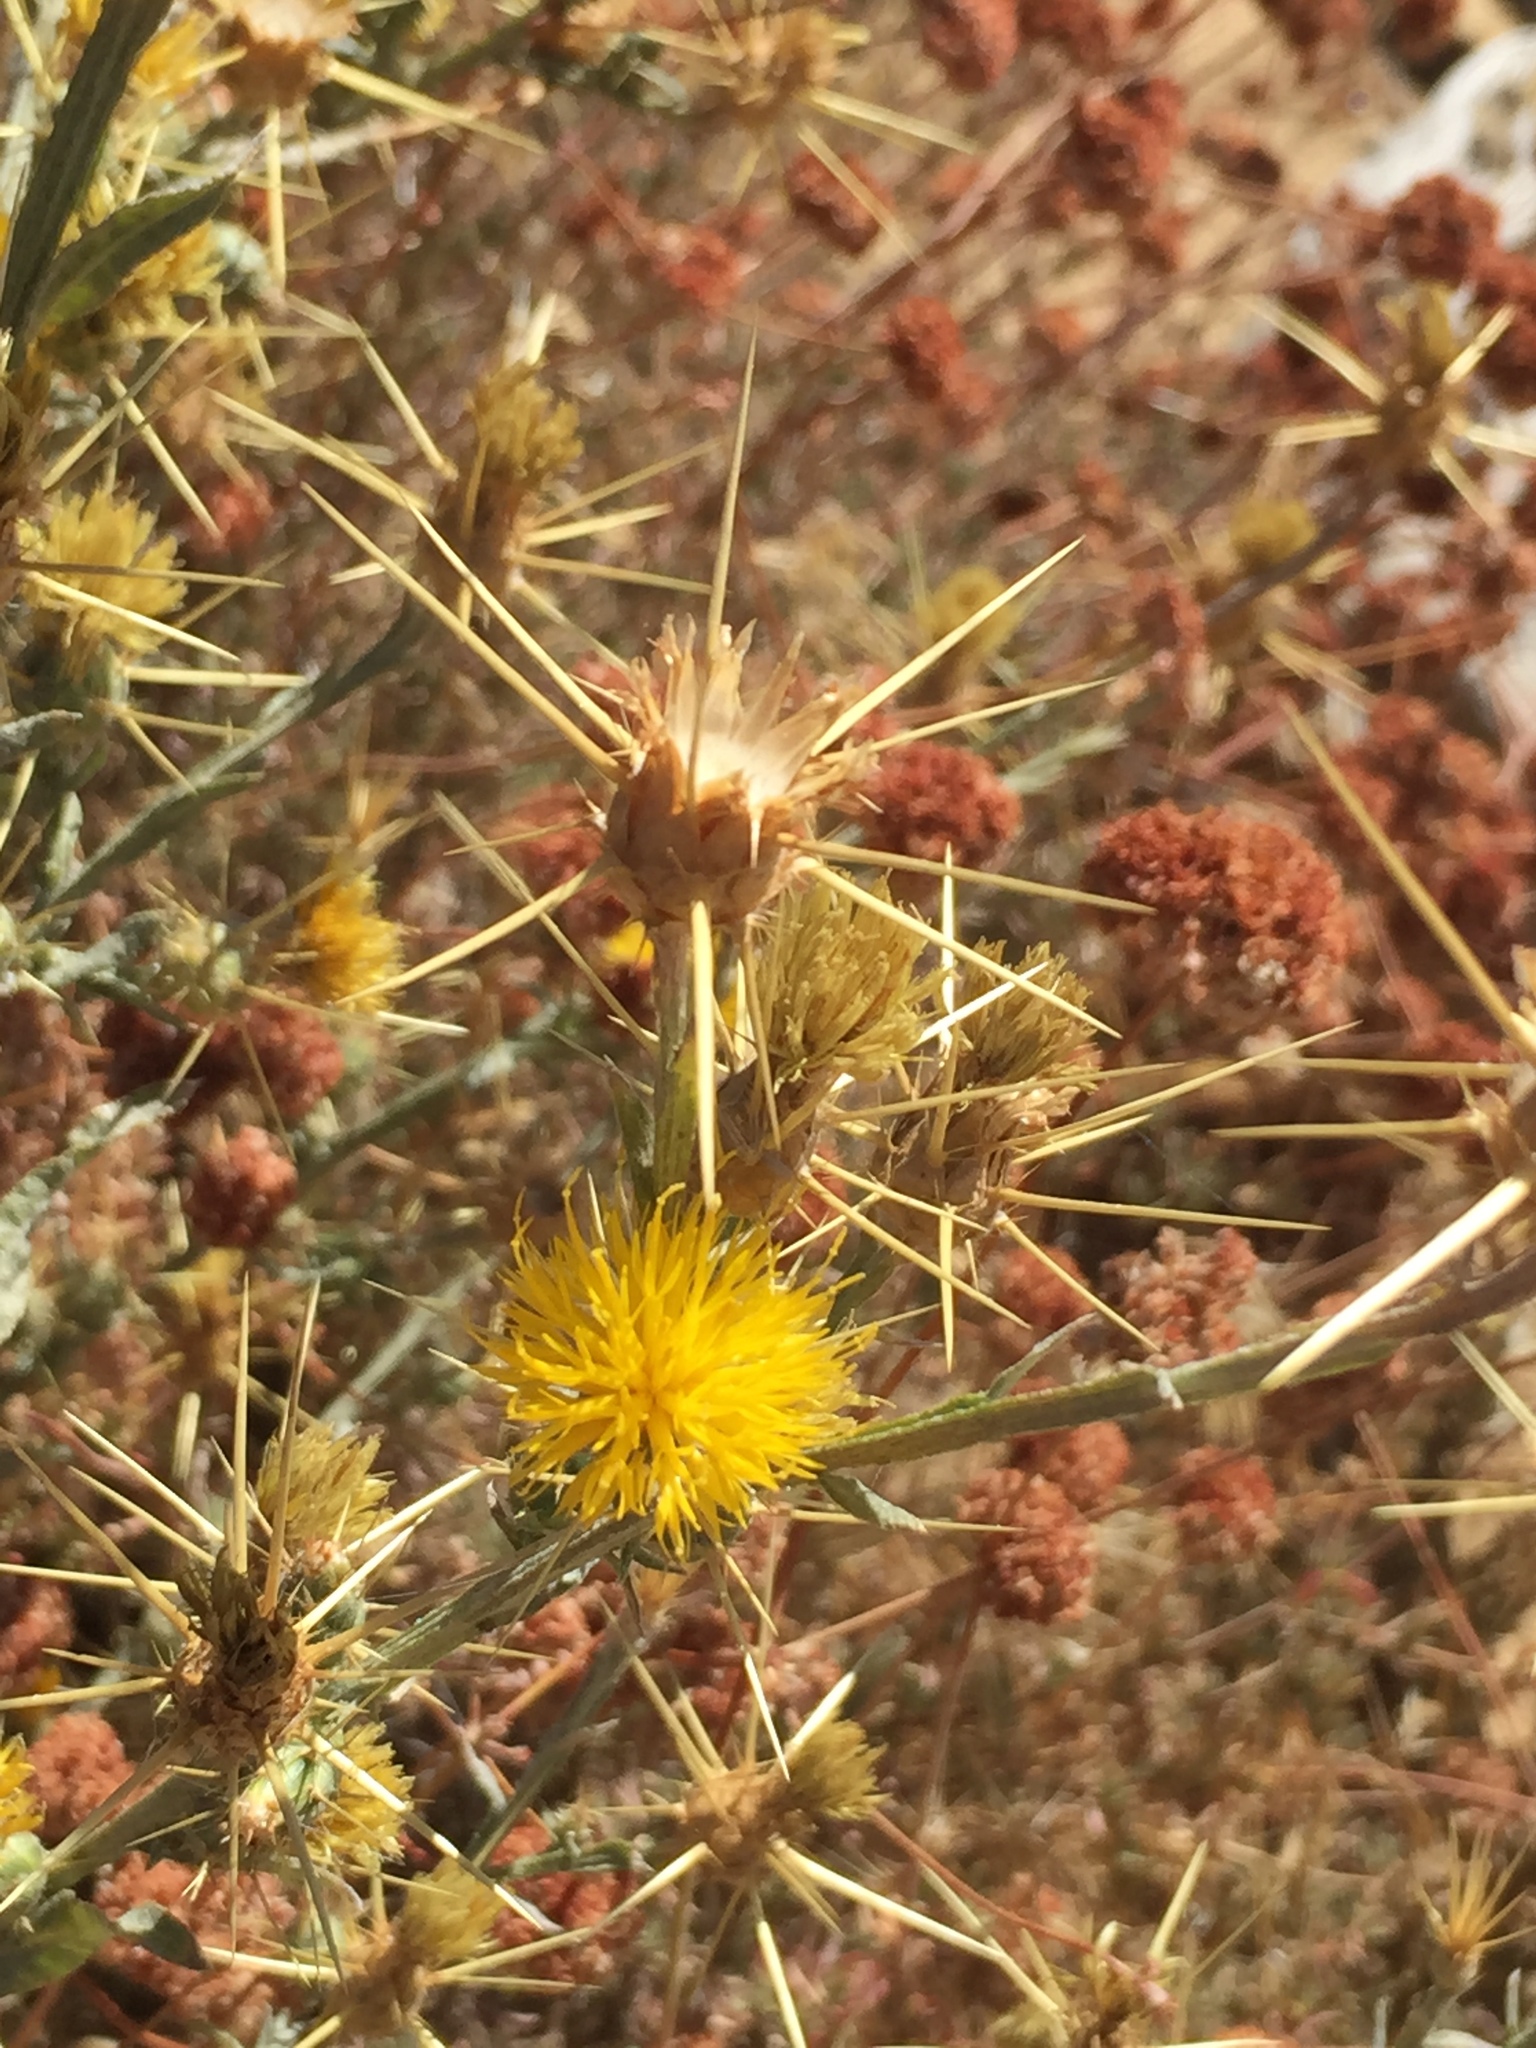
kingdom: Plantae
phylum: Tracheophyta
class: Magnoliopsida
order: Asterales
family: Asteraceae
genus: Centaurea
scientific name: Centaurea solstitialis
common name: Yellow star-thistle
